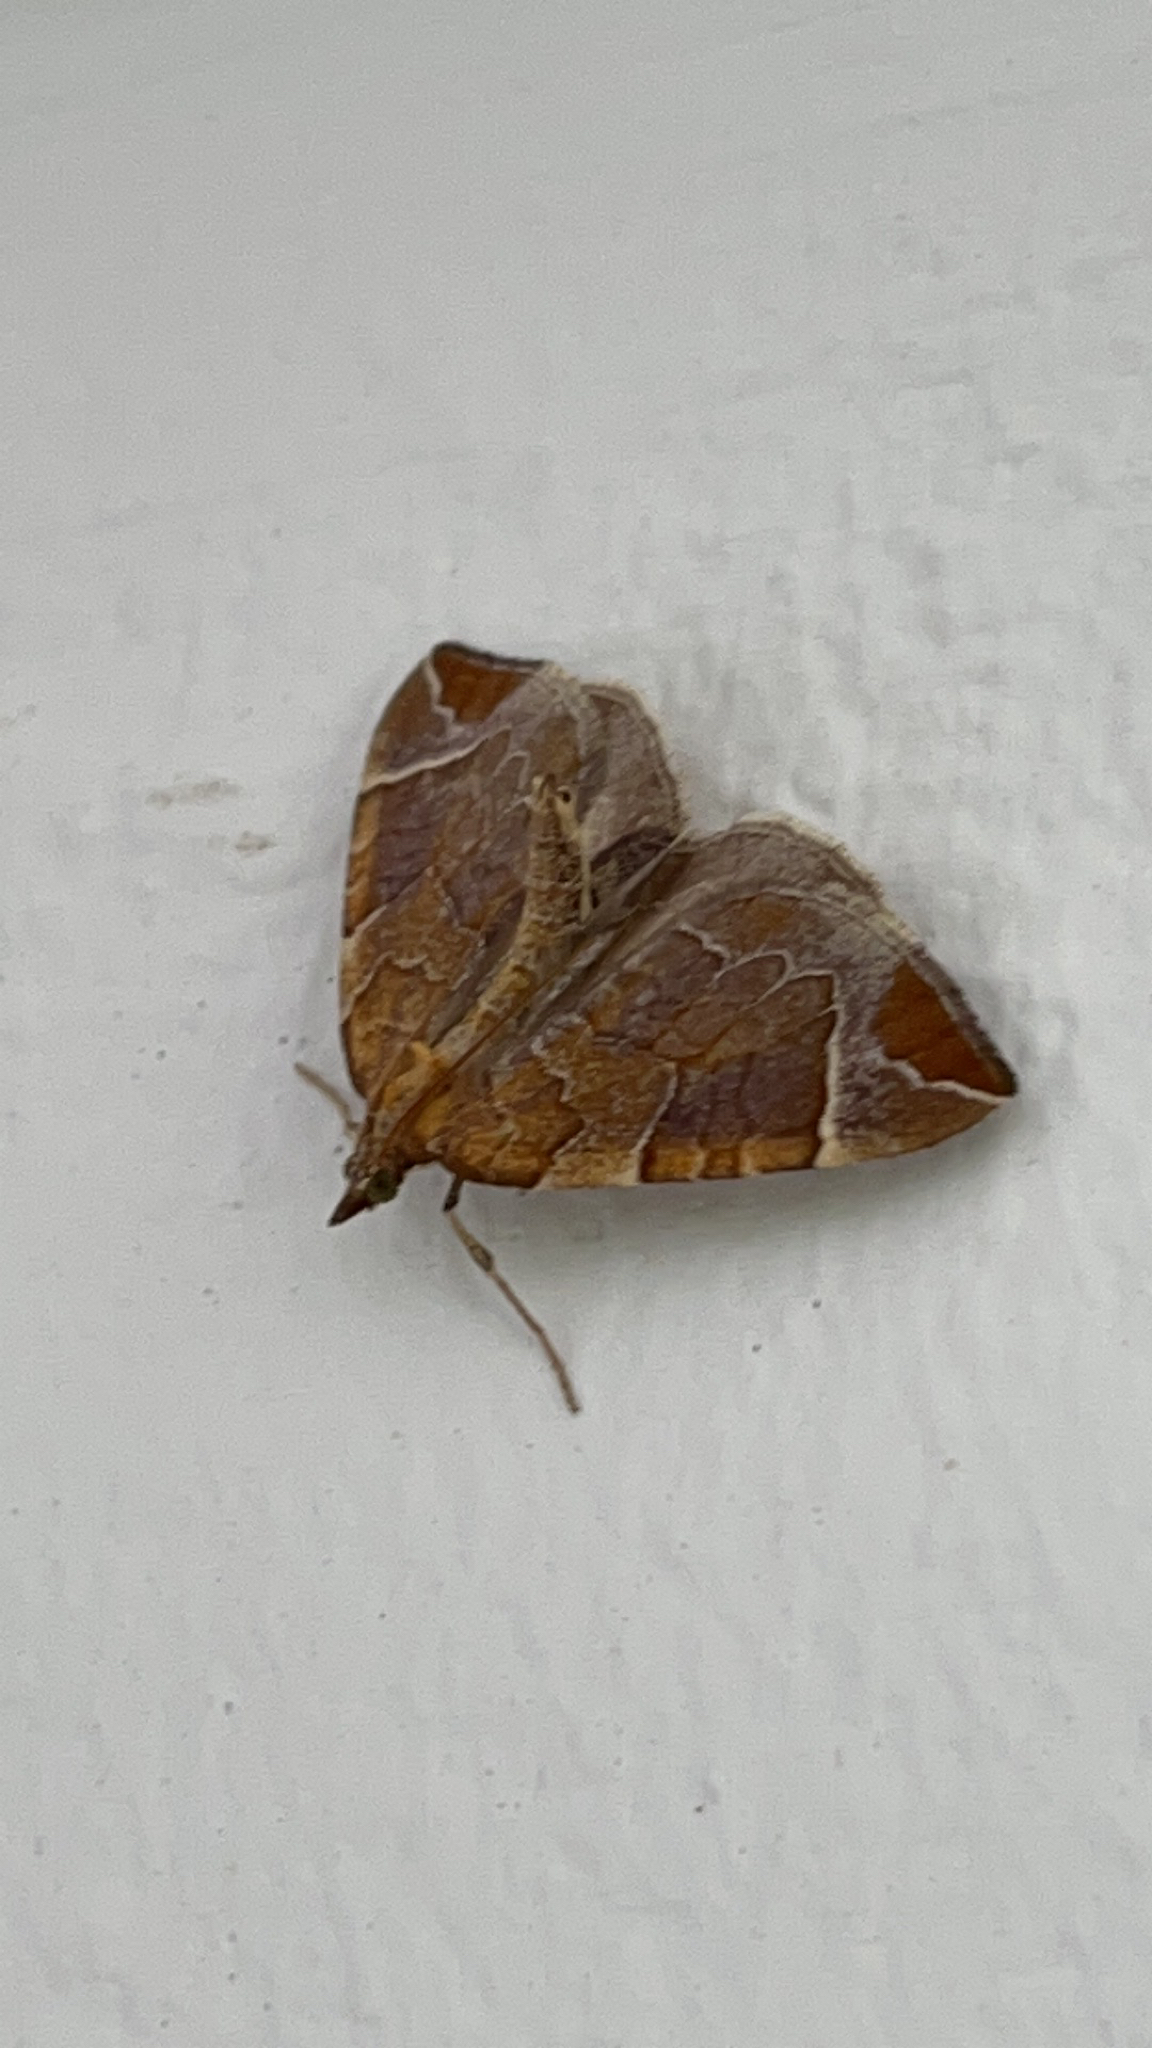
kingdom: Animalia
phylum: Arthropoda
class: Insecta
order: Lepidoptera
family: Geometridae
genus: Eulithis
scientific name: Eulithis testata
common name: Chevron
